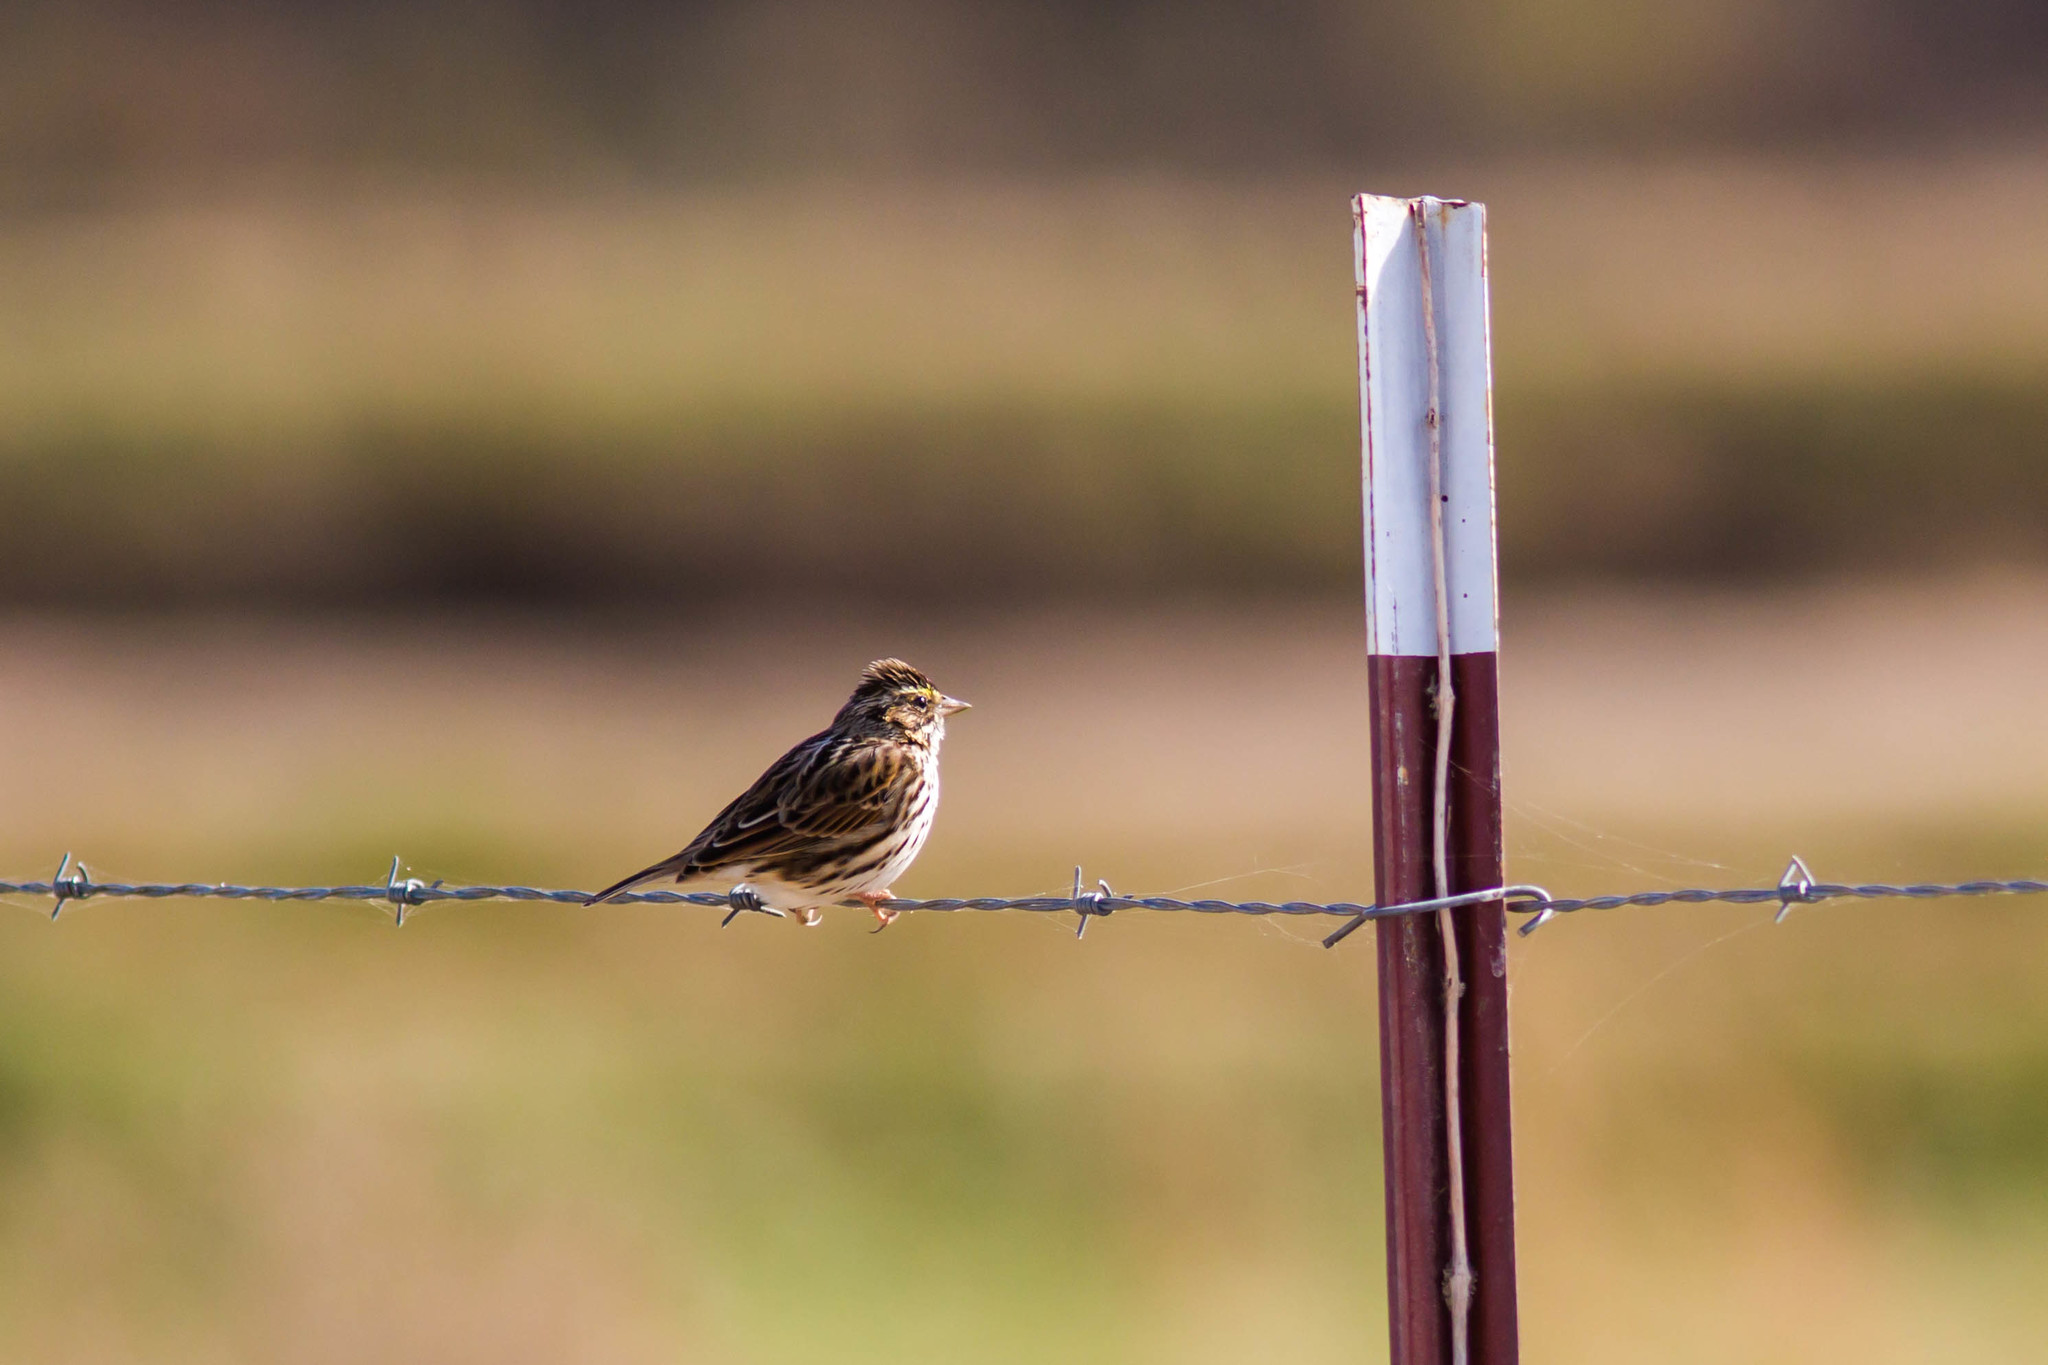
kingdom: Animalia
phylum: Chordata
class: Aves
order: Passeriformes
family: Passerellidae
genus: Passerculus
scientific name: Passerculus sandwichensis
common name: Savannah sparrow
